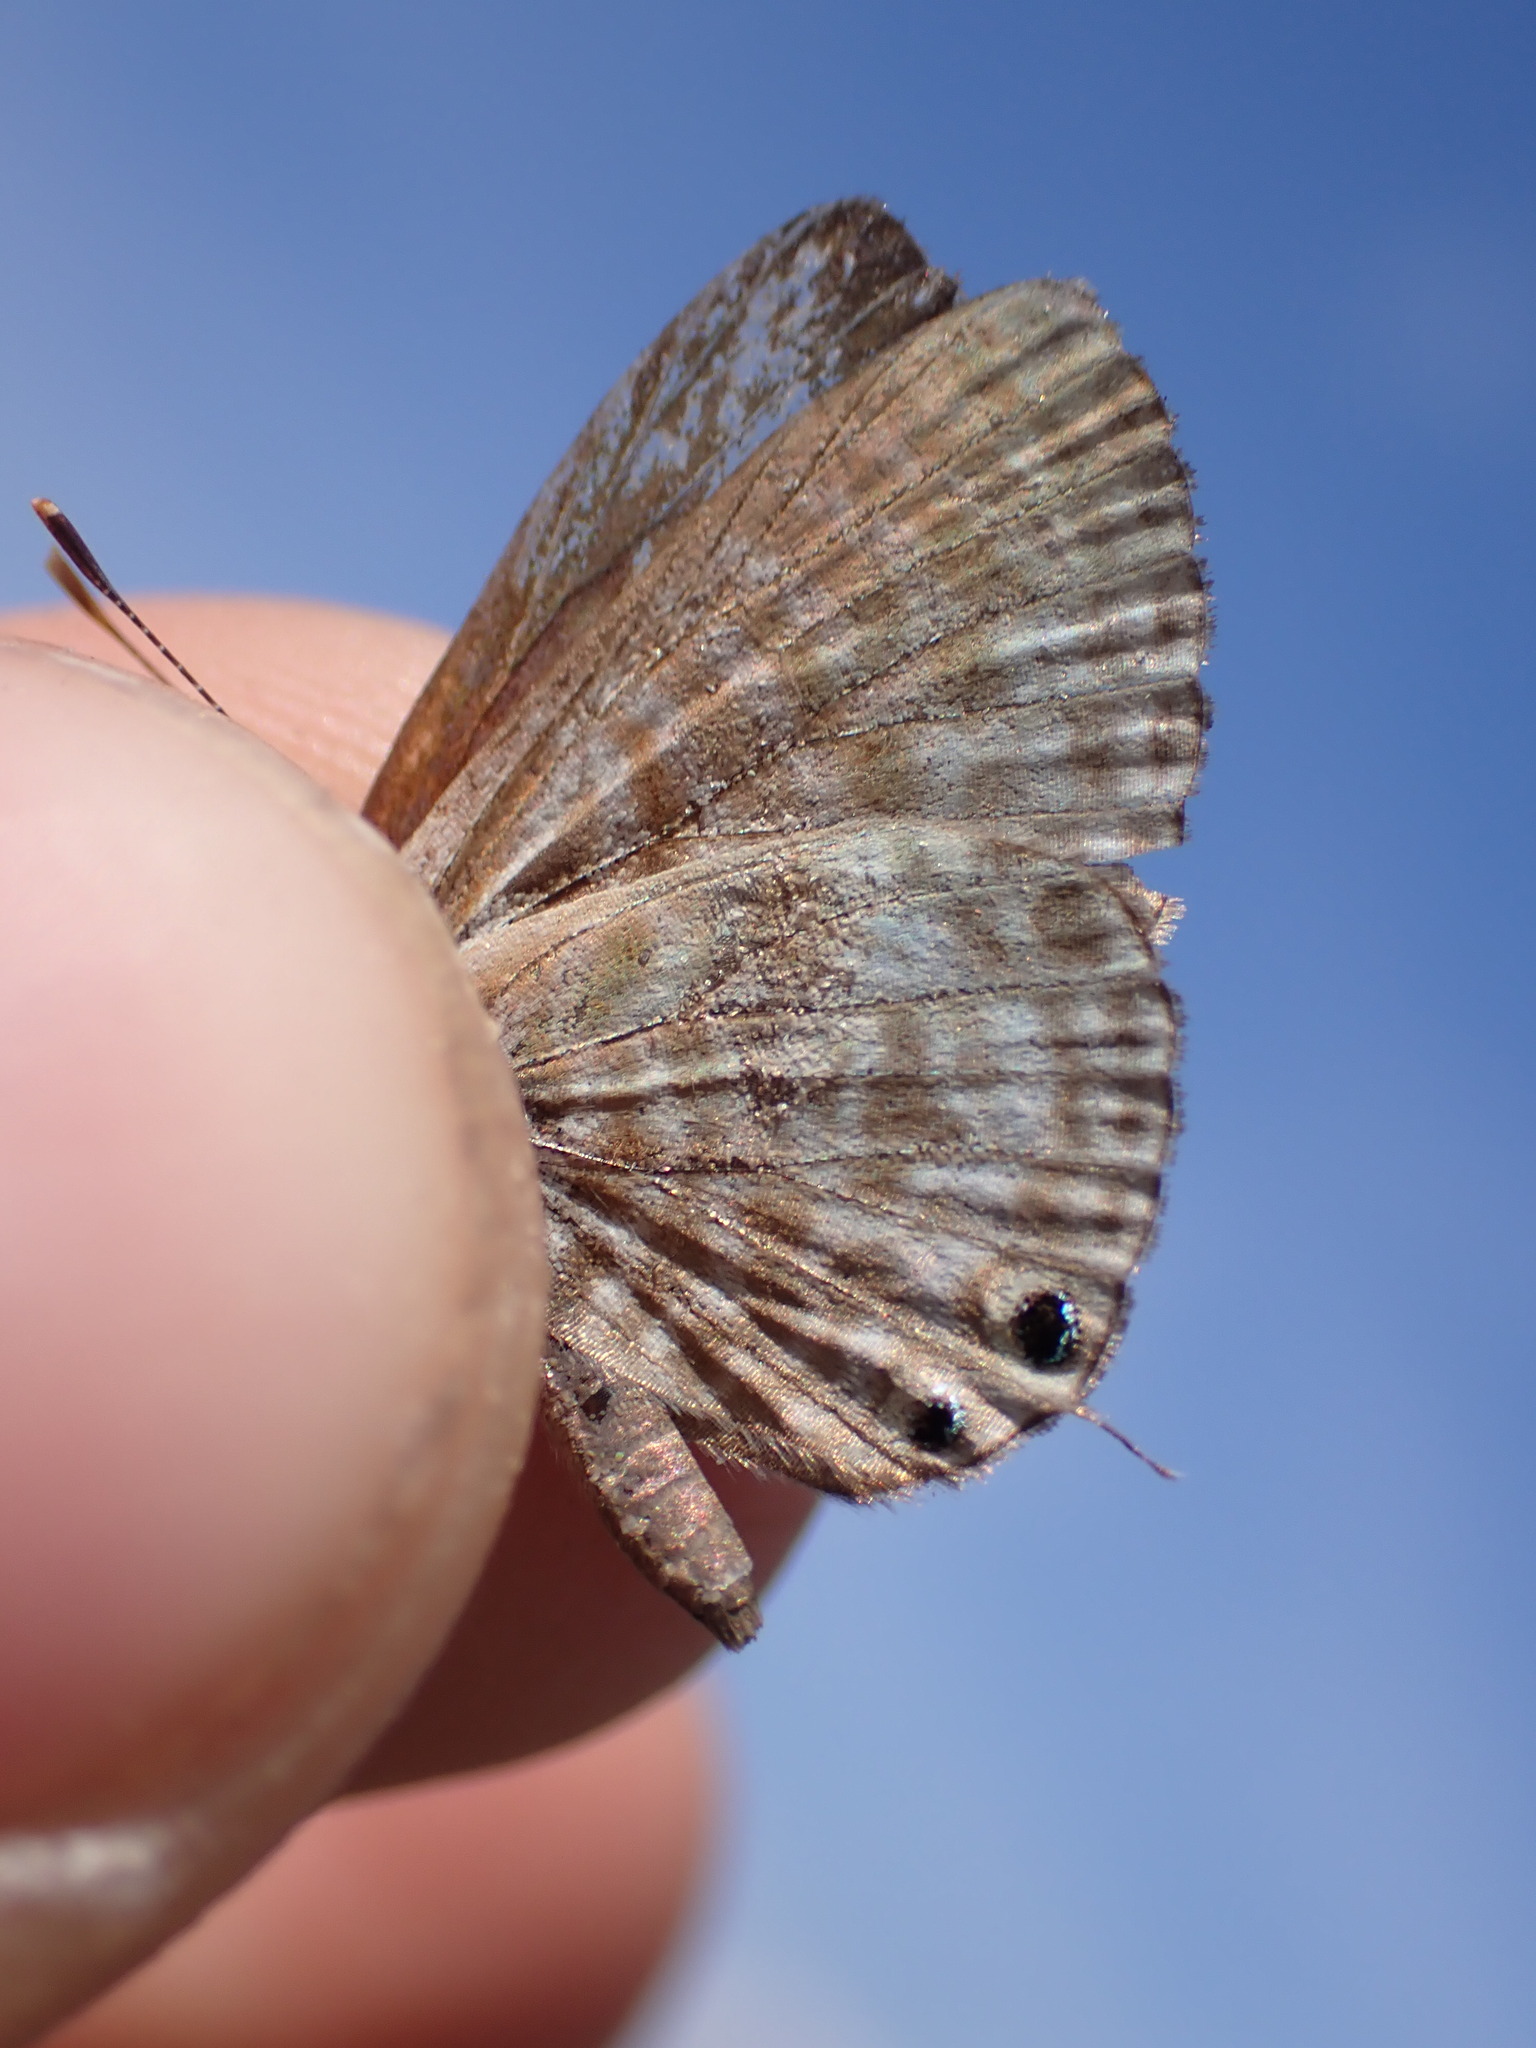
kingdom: Animalia
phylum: Arthropoda
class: Insecta
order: Lepidoptera
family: Lycaenidae
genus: Leptotes
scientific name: Leptotes pirithous
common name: Lang's short-tailed blue
